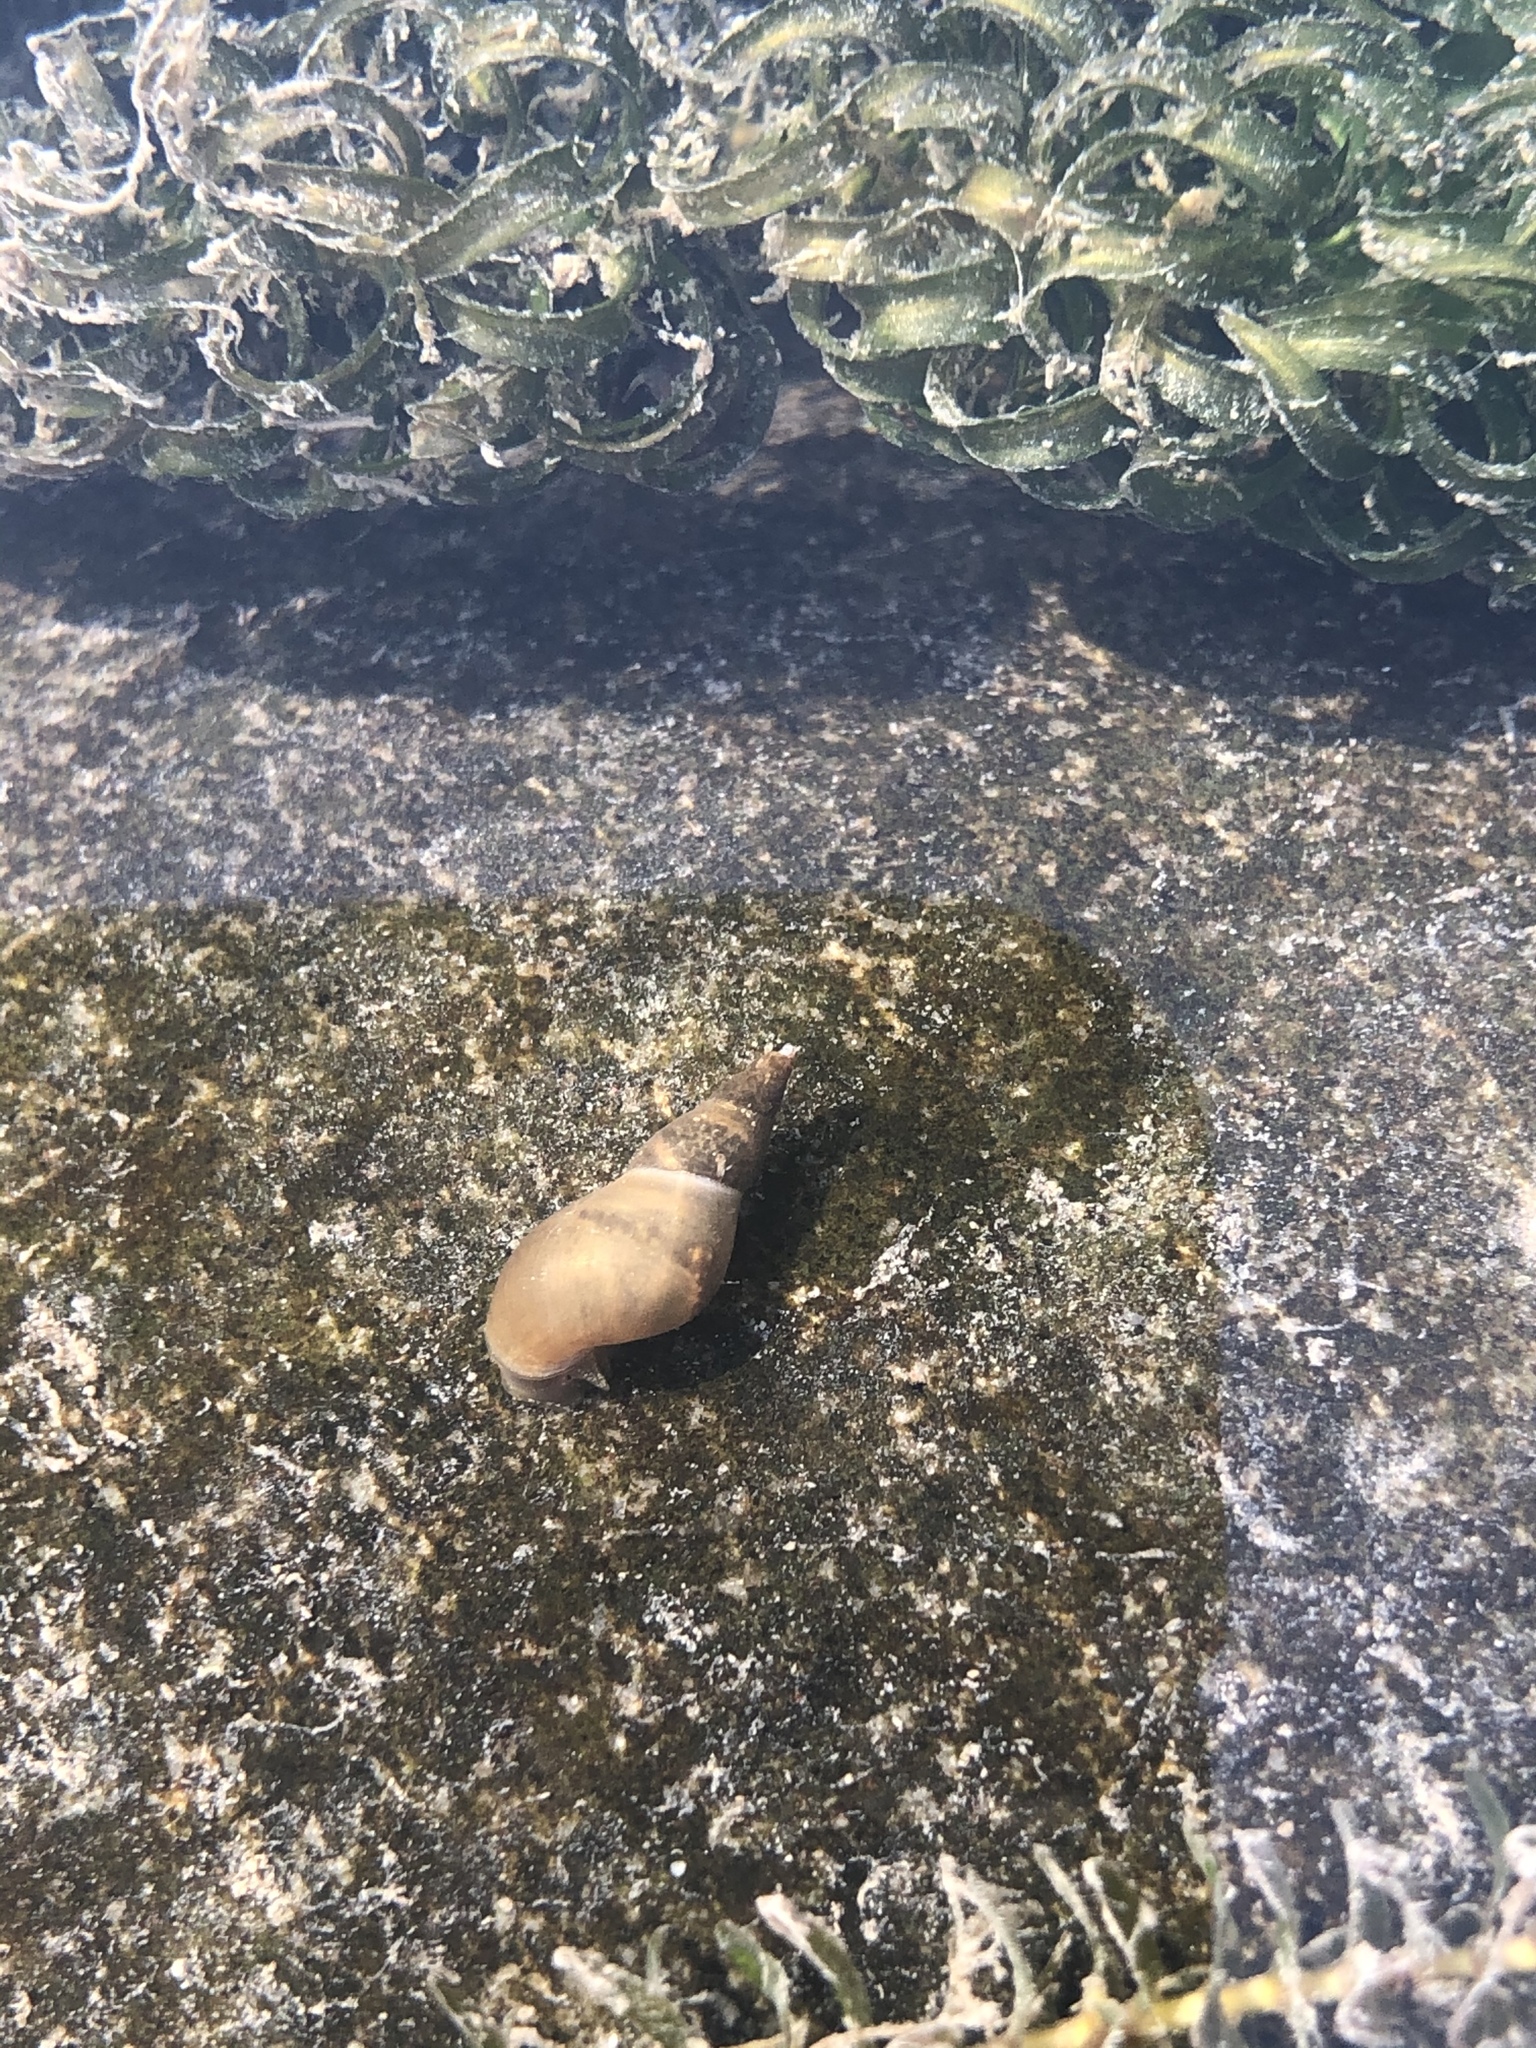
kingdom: Animalia
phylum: Mollusca
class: Gastropoda
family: Lymnaeidae
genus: Lymnaea
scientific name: Lymnaea stagnalis
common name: Great pond snail
